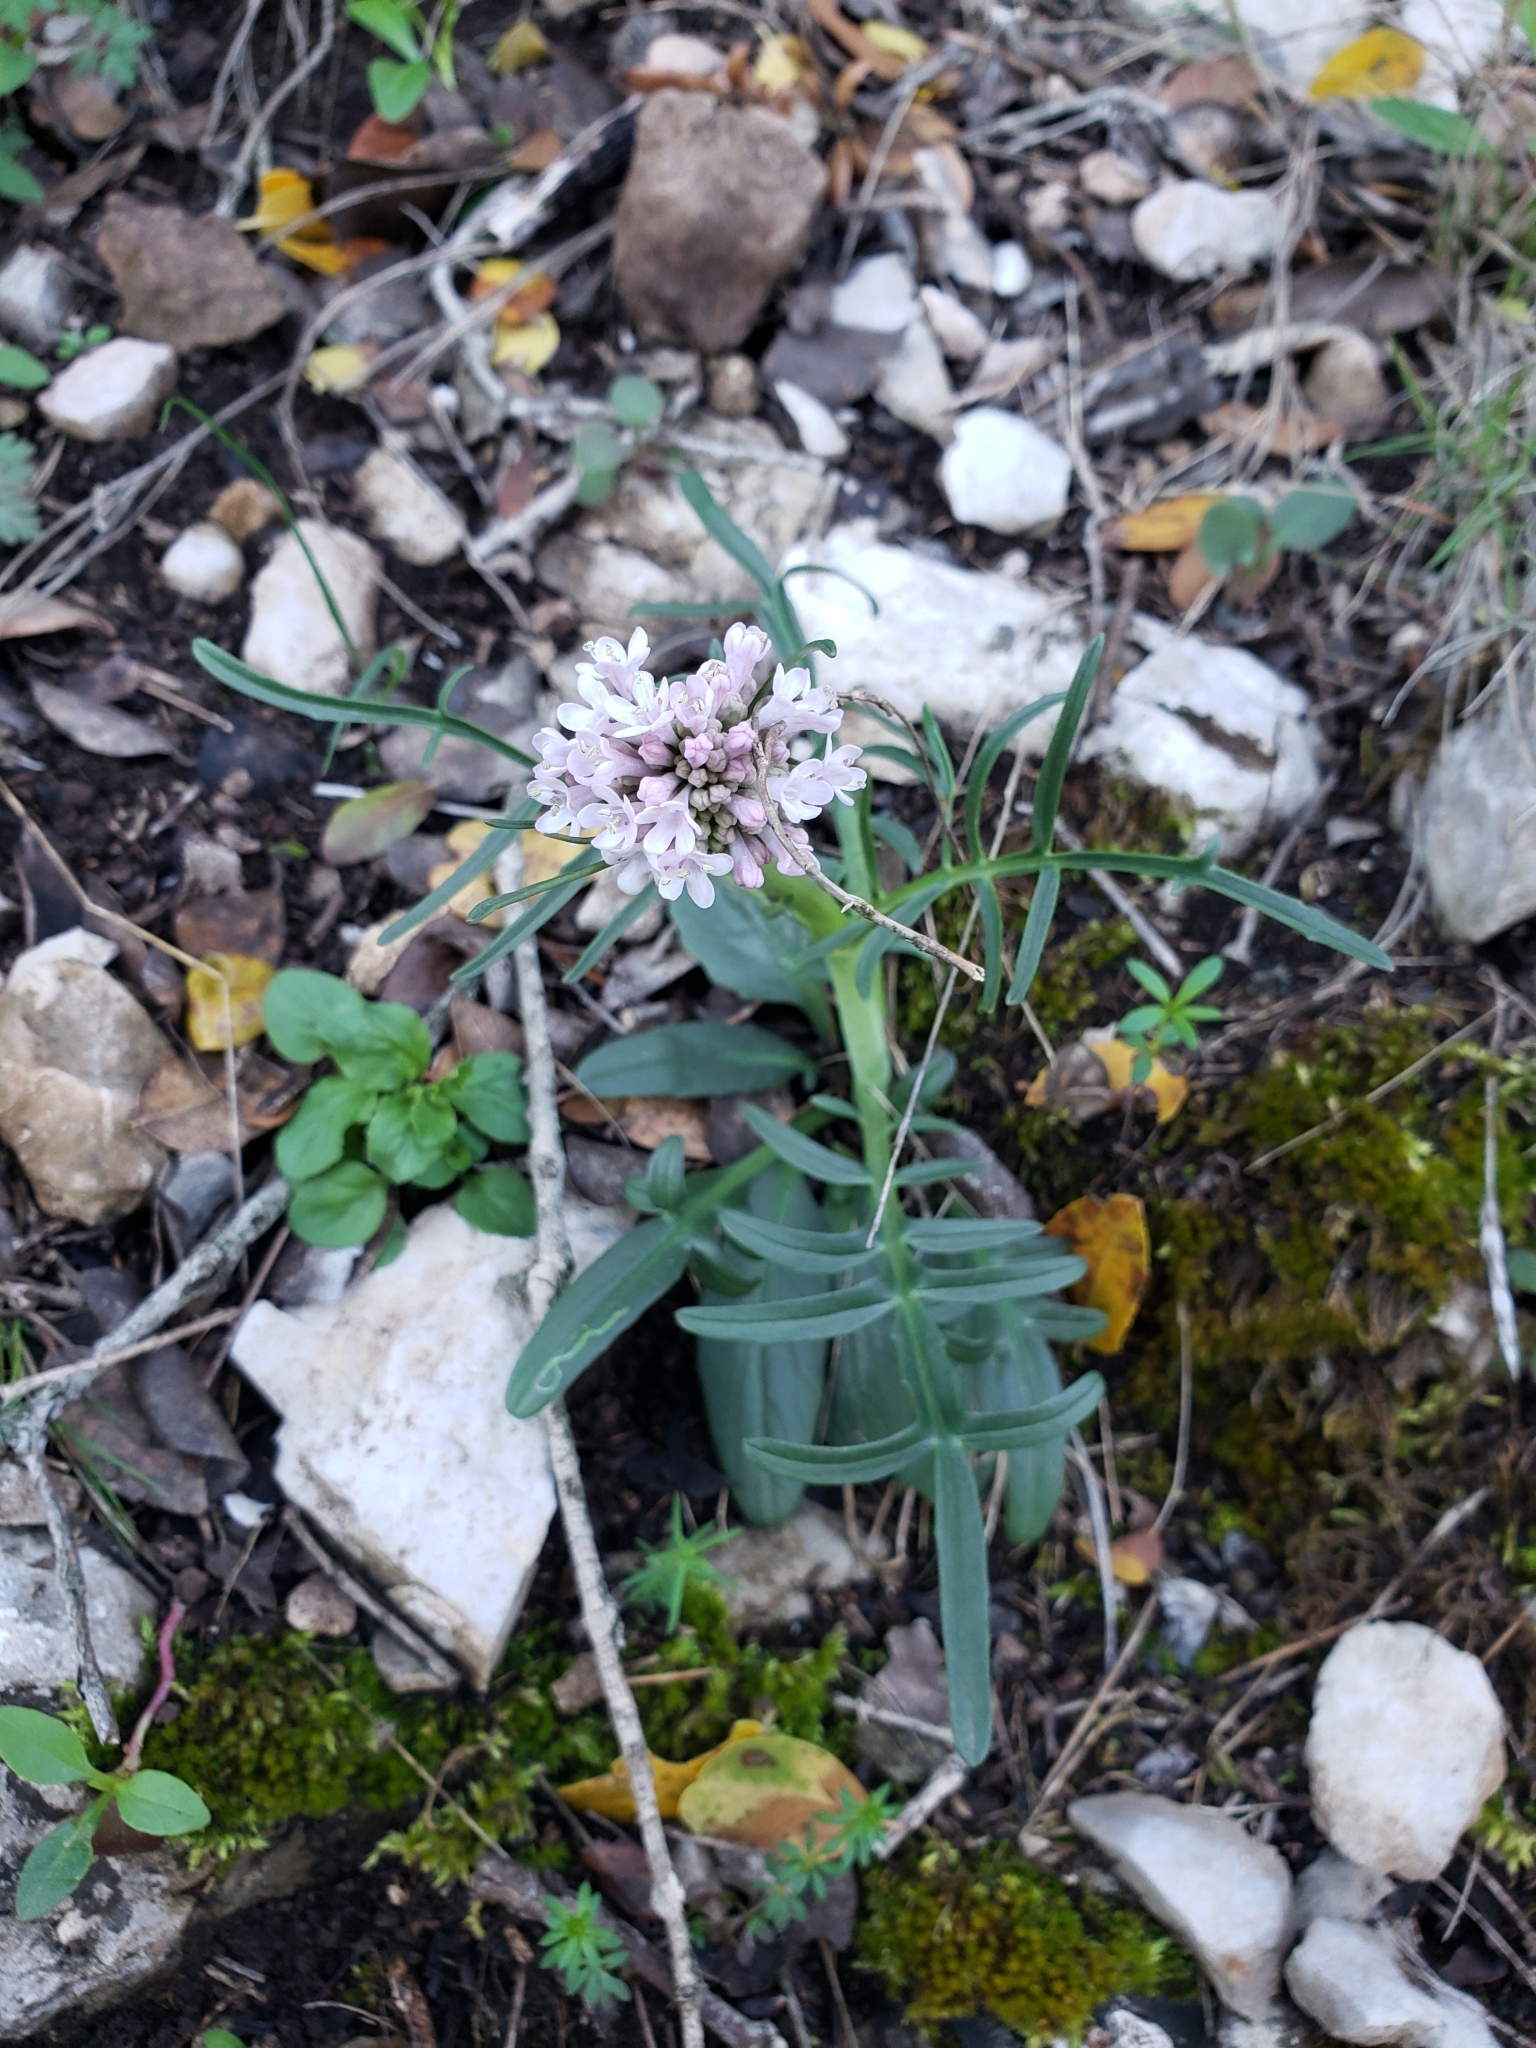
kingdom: Plantae
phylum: Tracheophyta
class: Magnoliopsida
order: Dipsacales
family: Caprifoliaceae
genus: Valeriana
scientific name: Valeriana tuberosa
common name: Tuberous valerian
